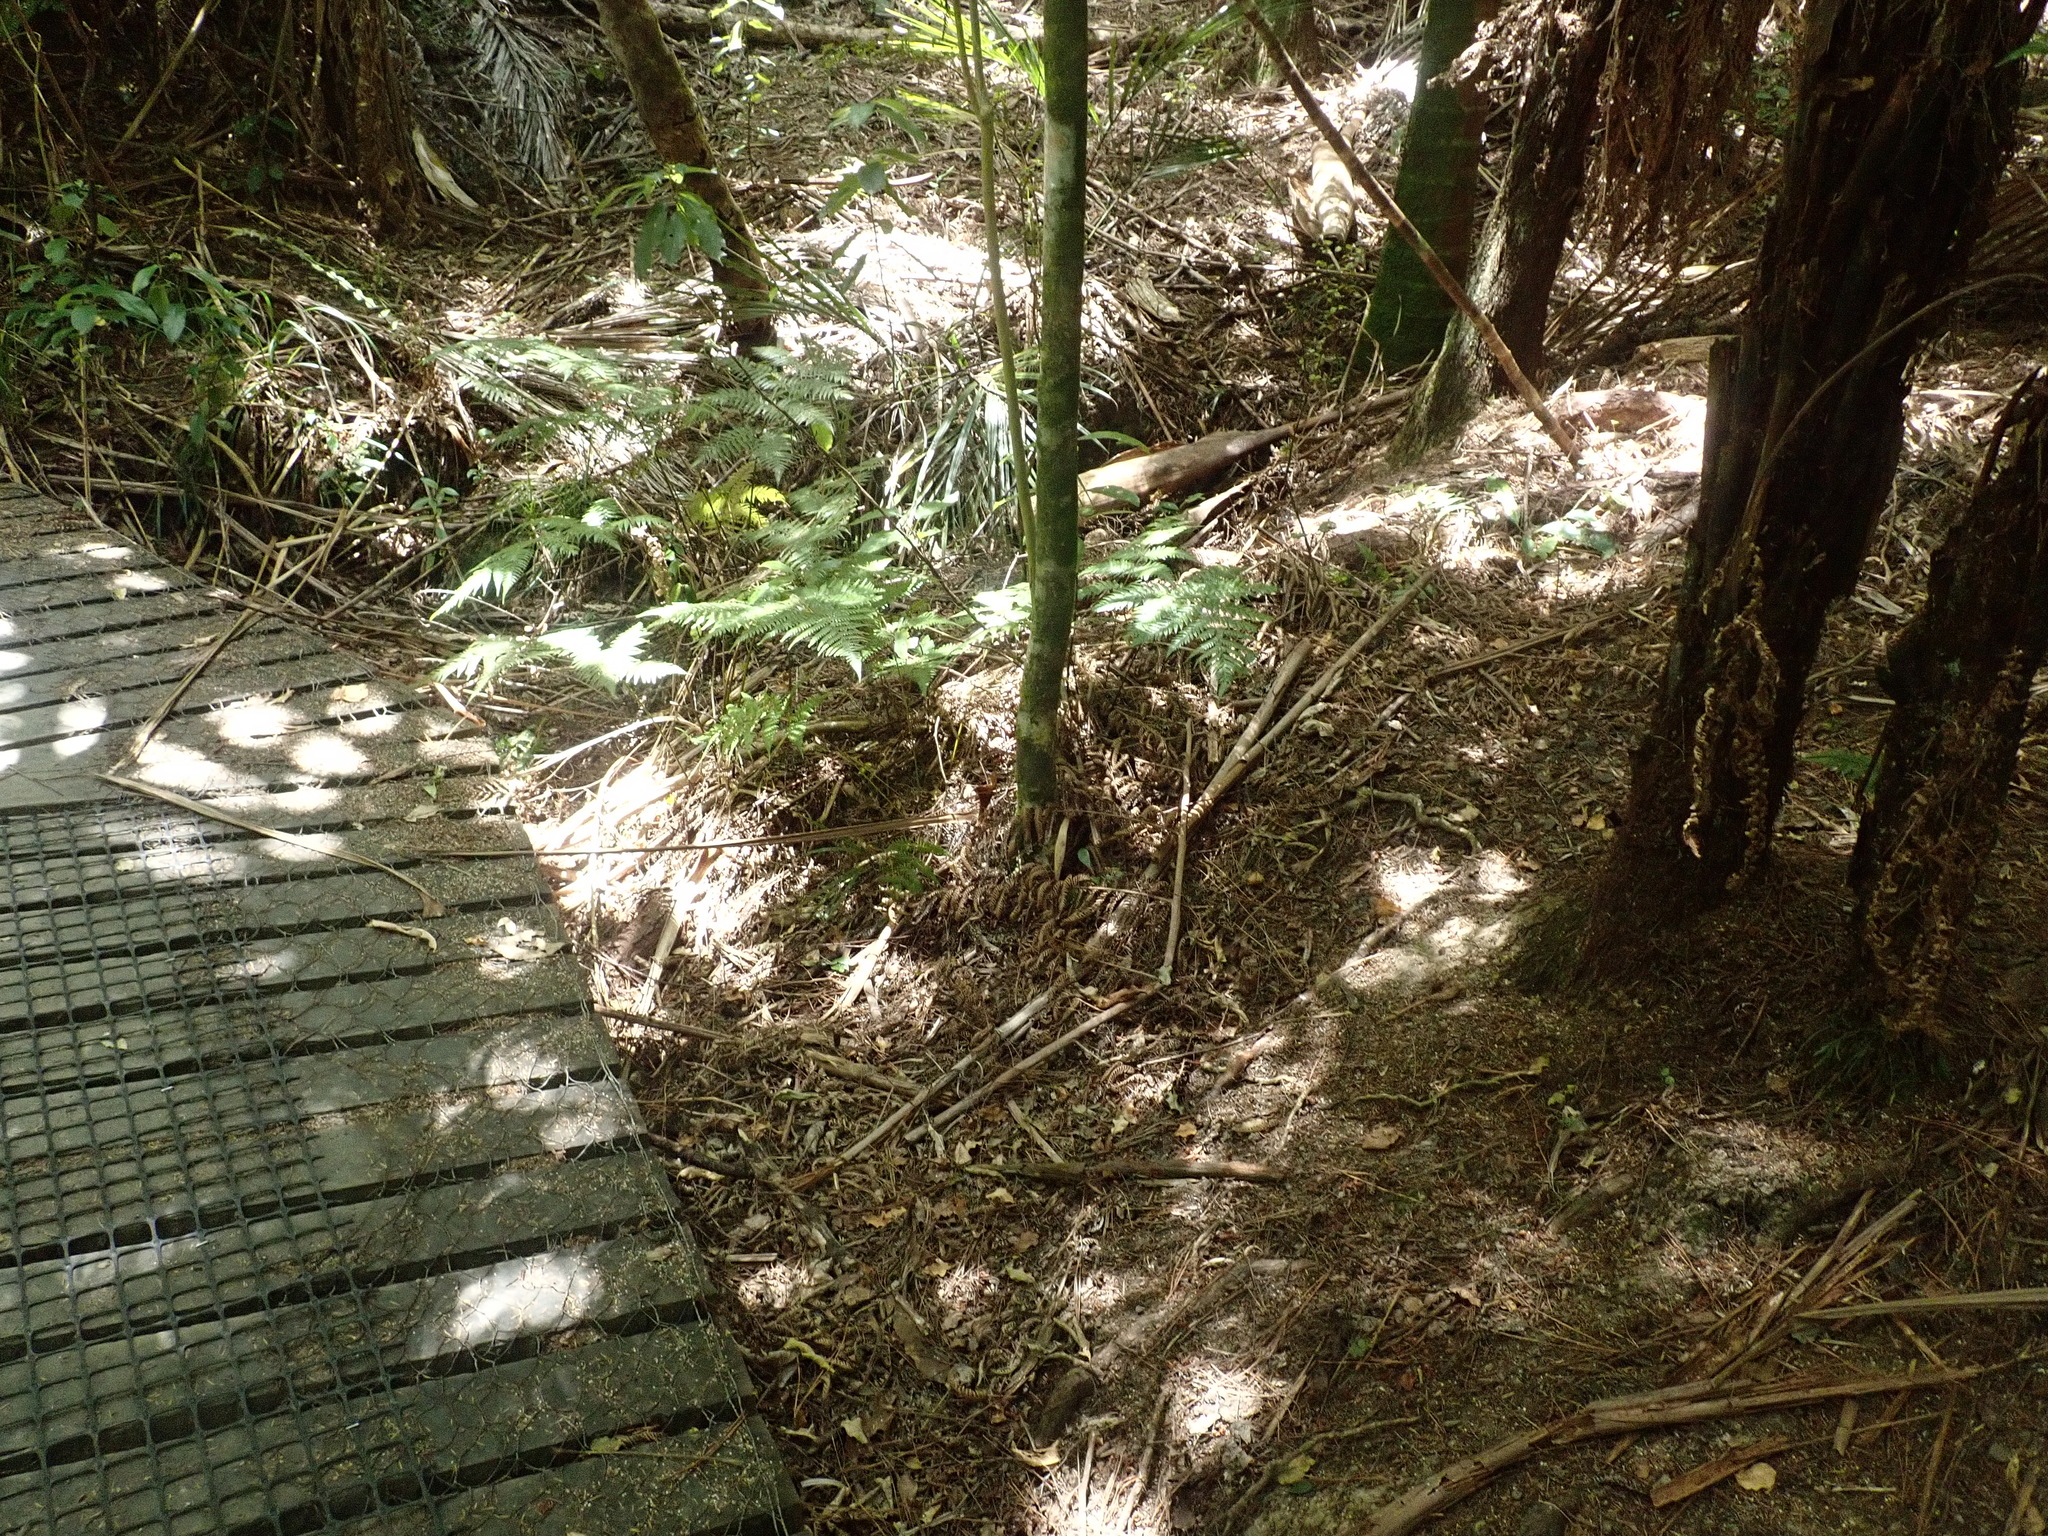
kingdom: Plantae
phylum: Tracheophyta
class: Polypodiopsida
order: Cyatheales
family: Cyatheaceae
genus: Alsophila
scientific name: Alsophila dealbata
